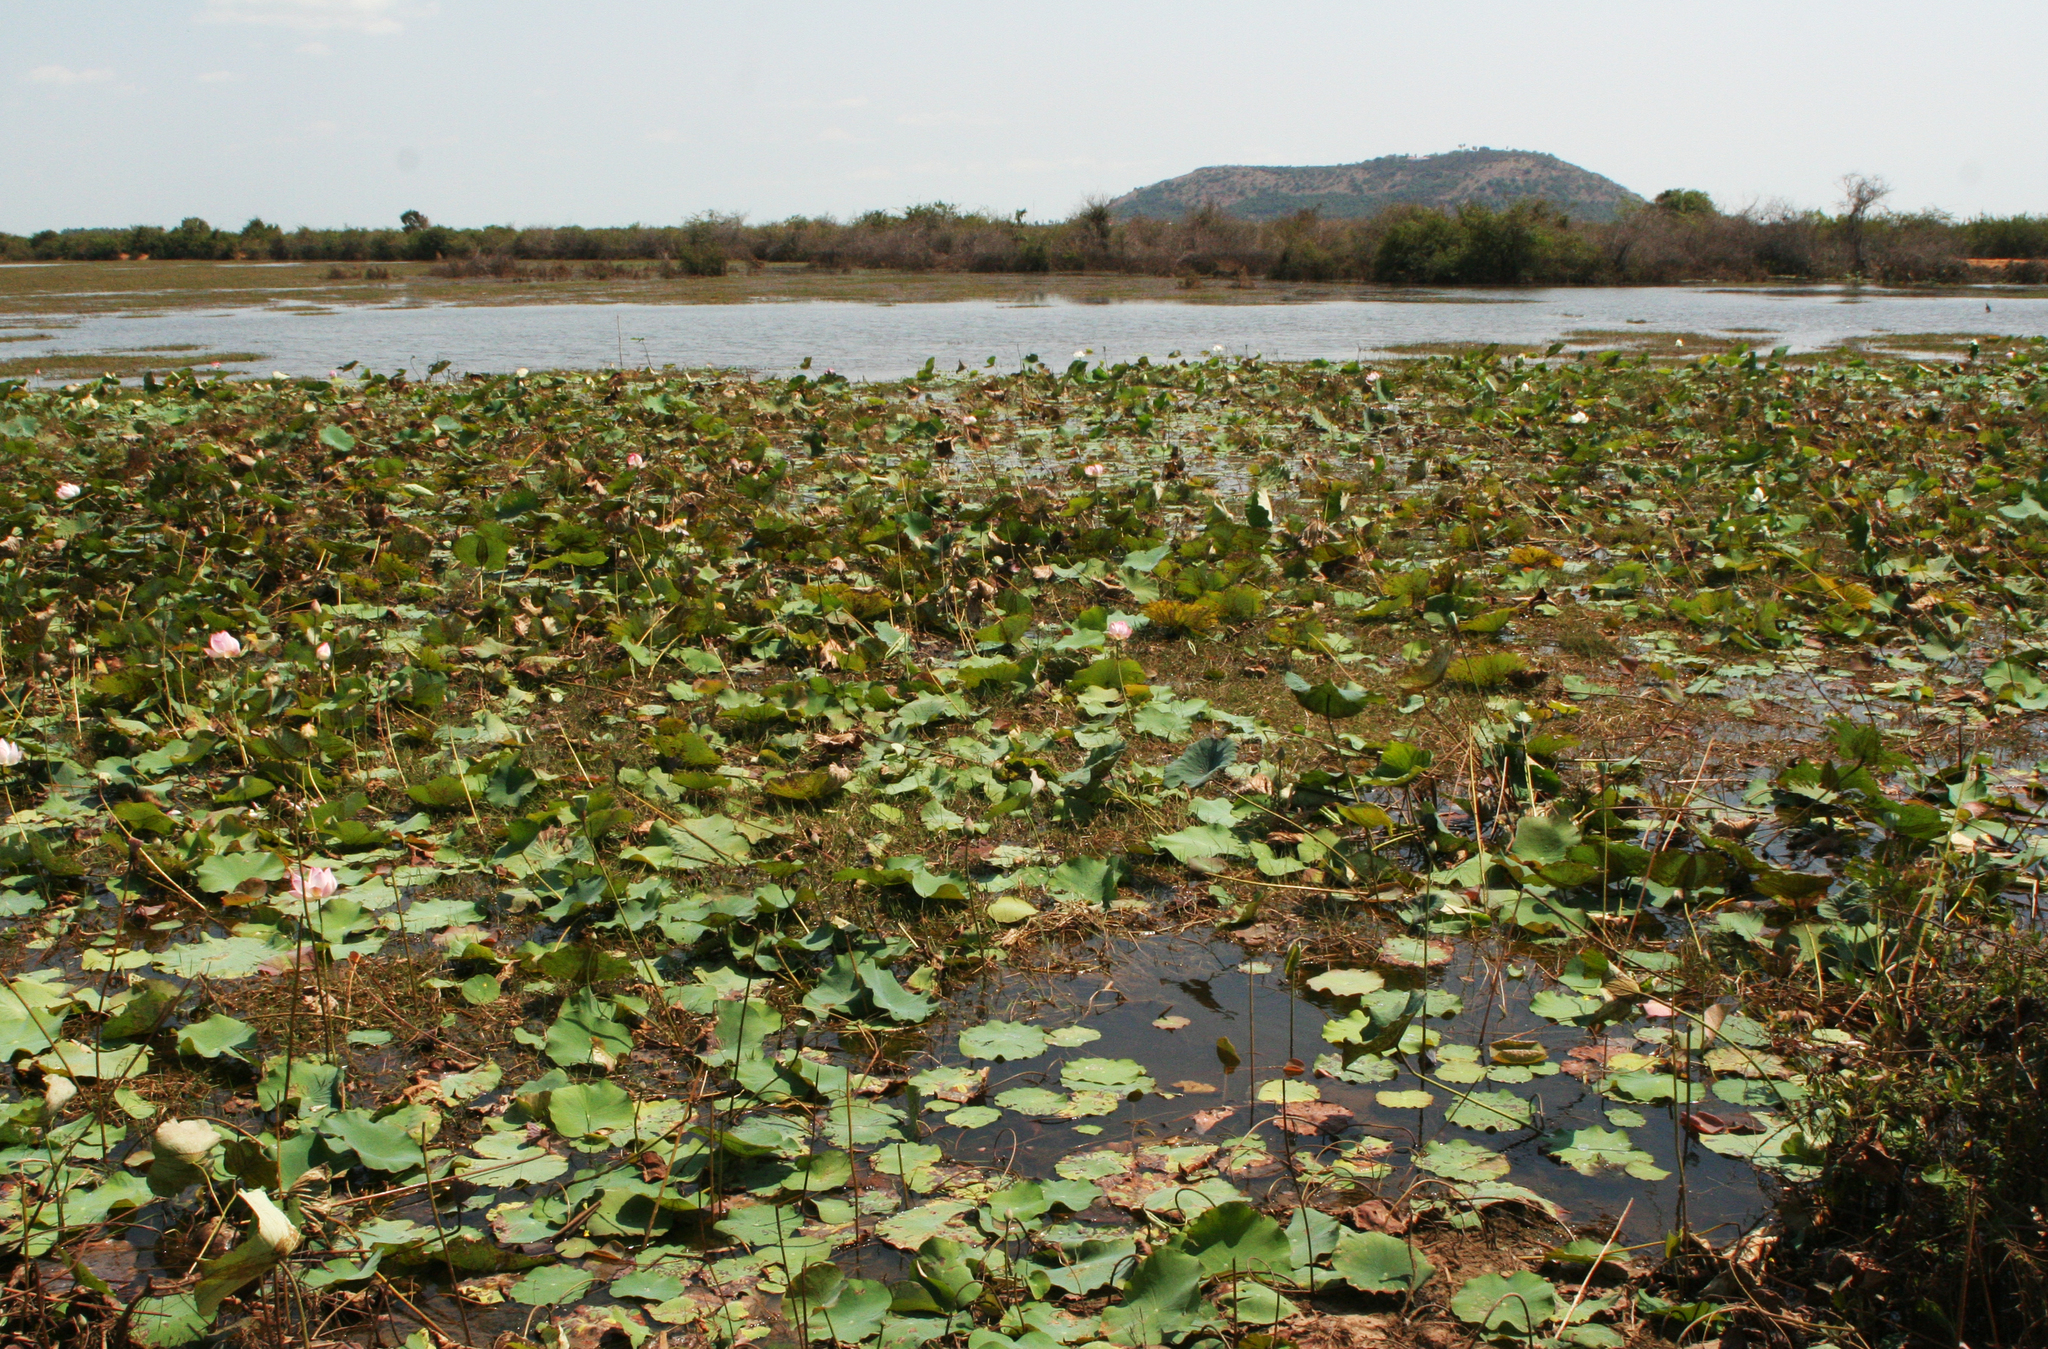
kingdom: Plantae
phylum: Tracheophyta
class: Magnoliopsida
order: Proteales
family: Nelumbonaceae
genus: Nelumbo
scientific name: Nelumbo nucifera
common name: Sacred lotus
